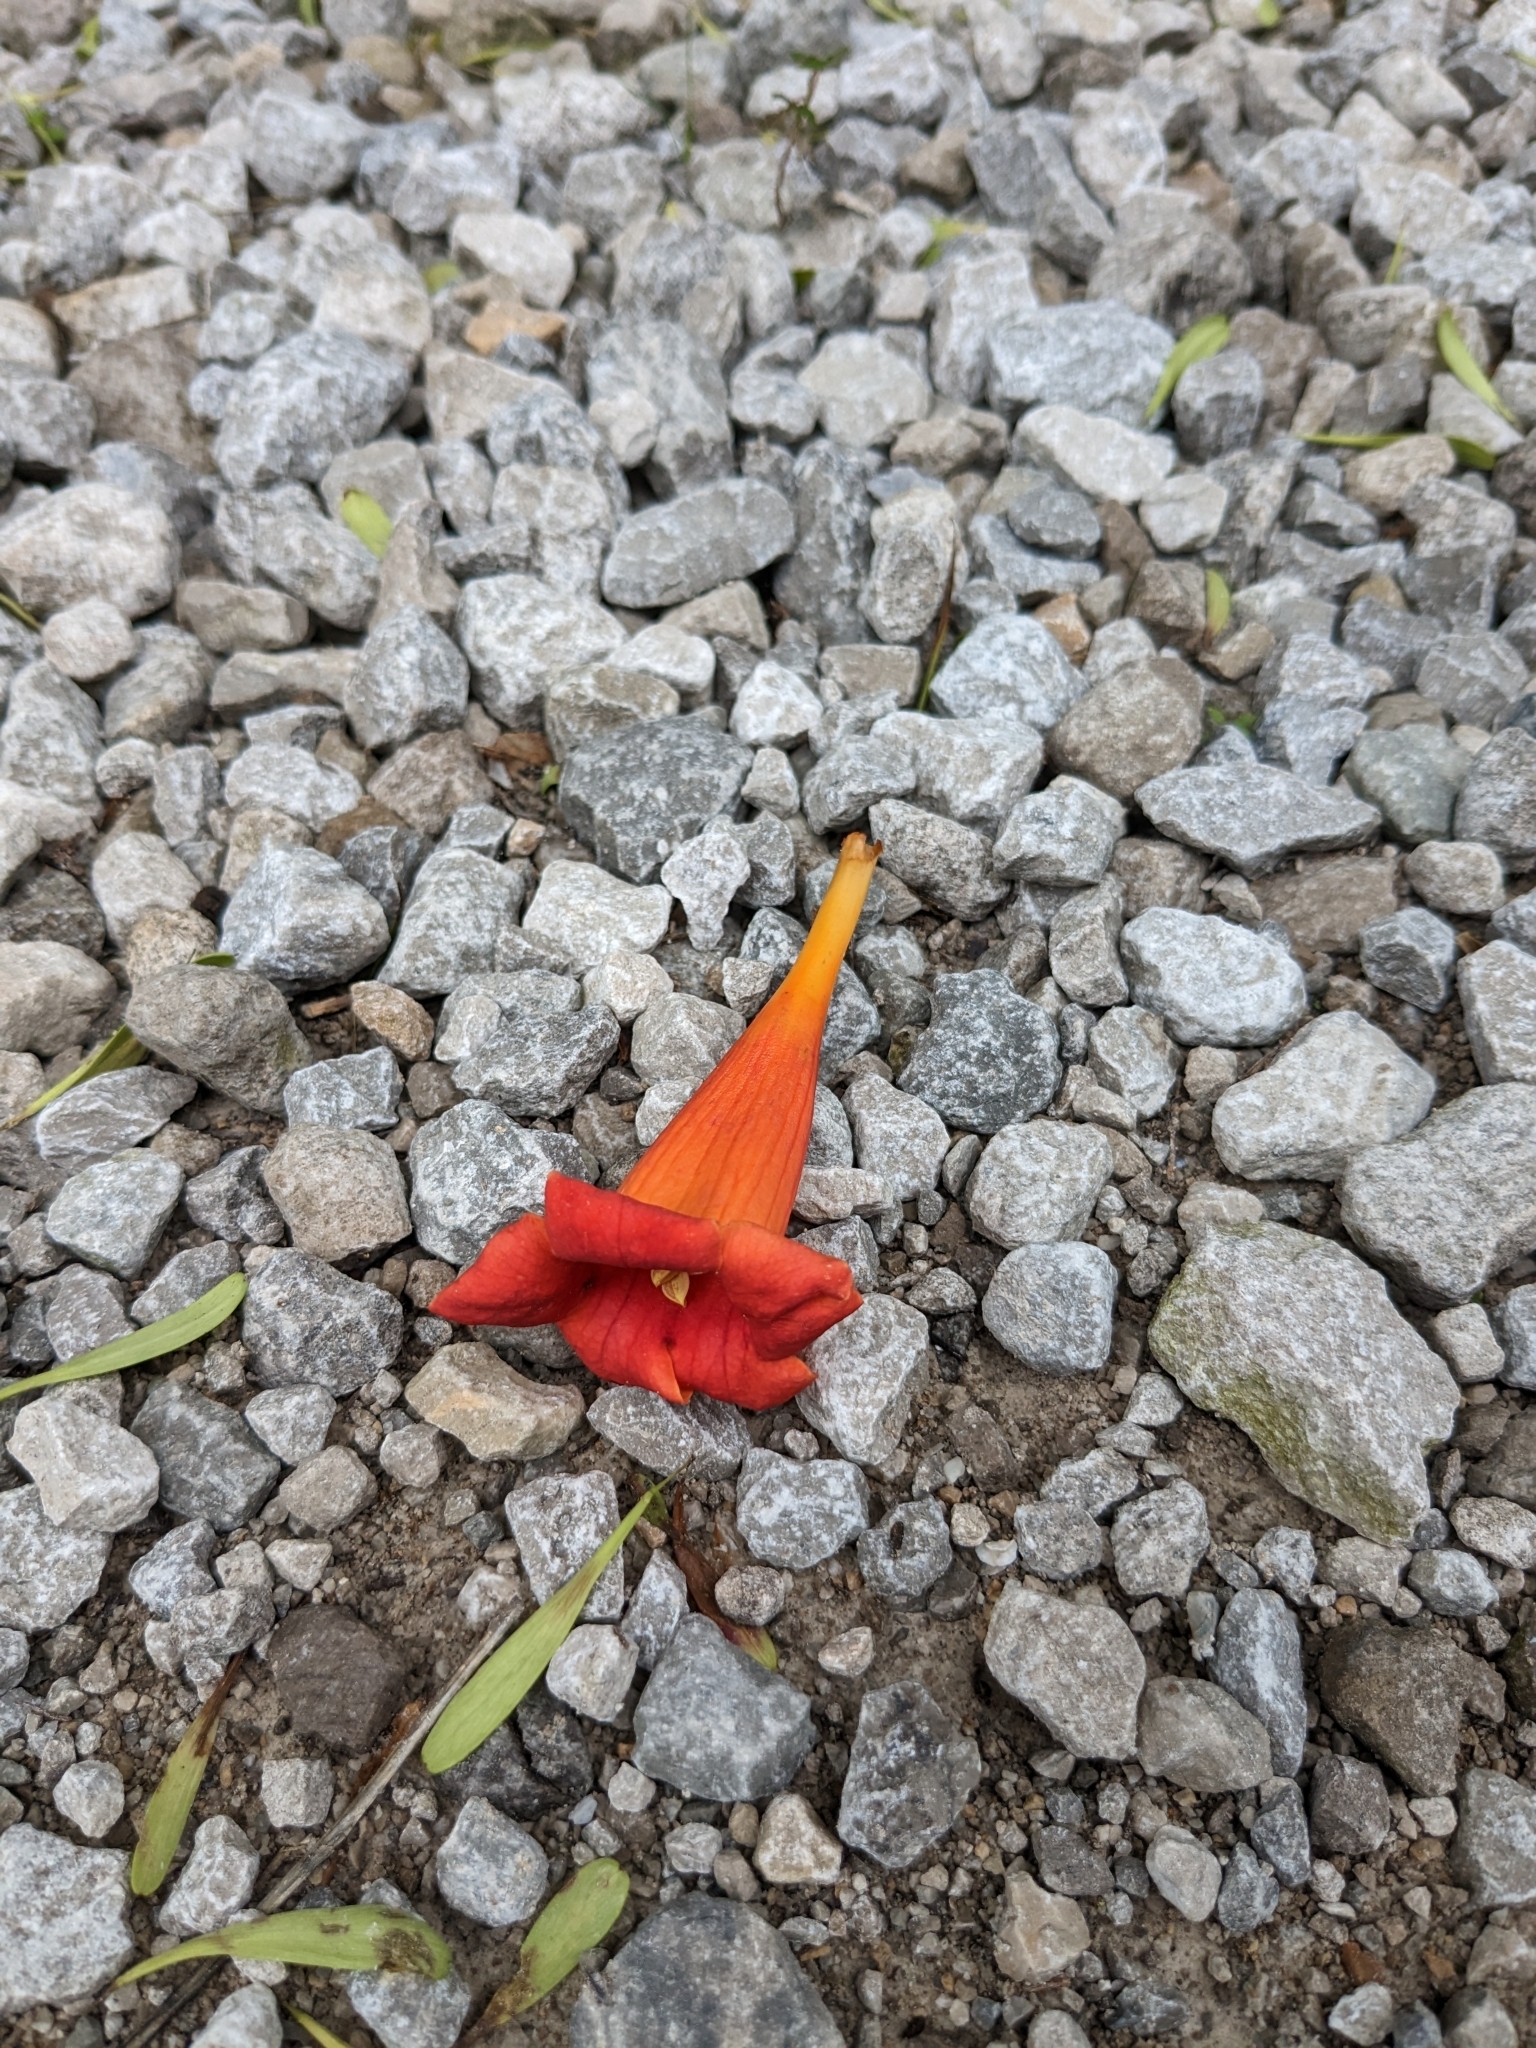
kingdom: Plantae
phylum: Tracheophyta
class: Magnoliopsida
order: Lamiales
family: Bignoniaceae
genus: Campsis
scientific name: Campsis radicans
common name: Trumpet-creeper
